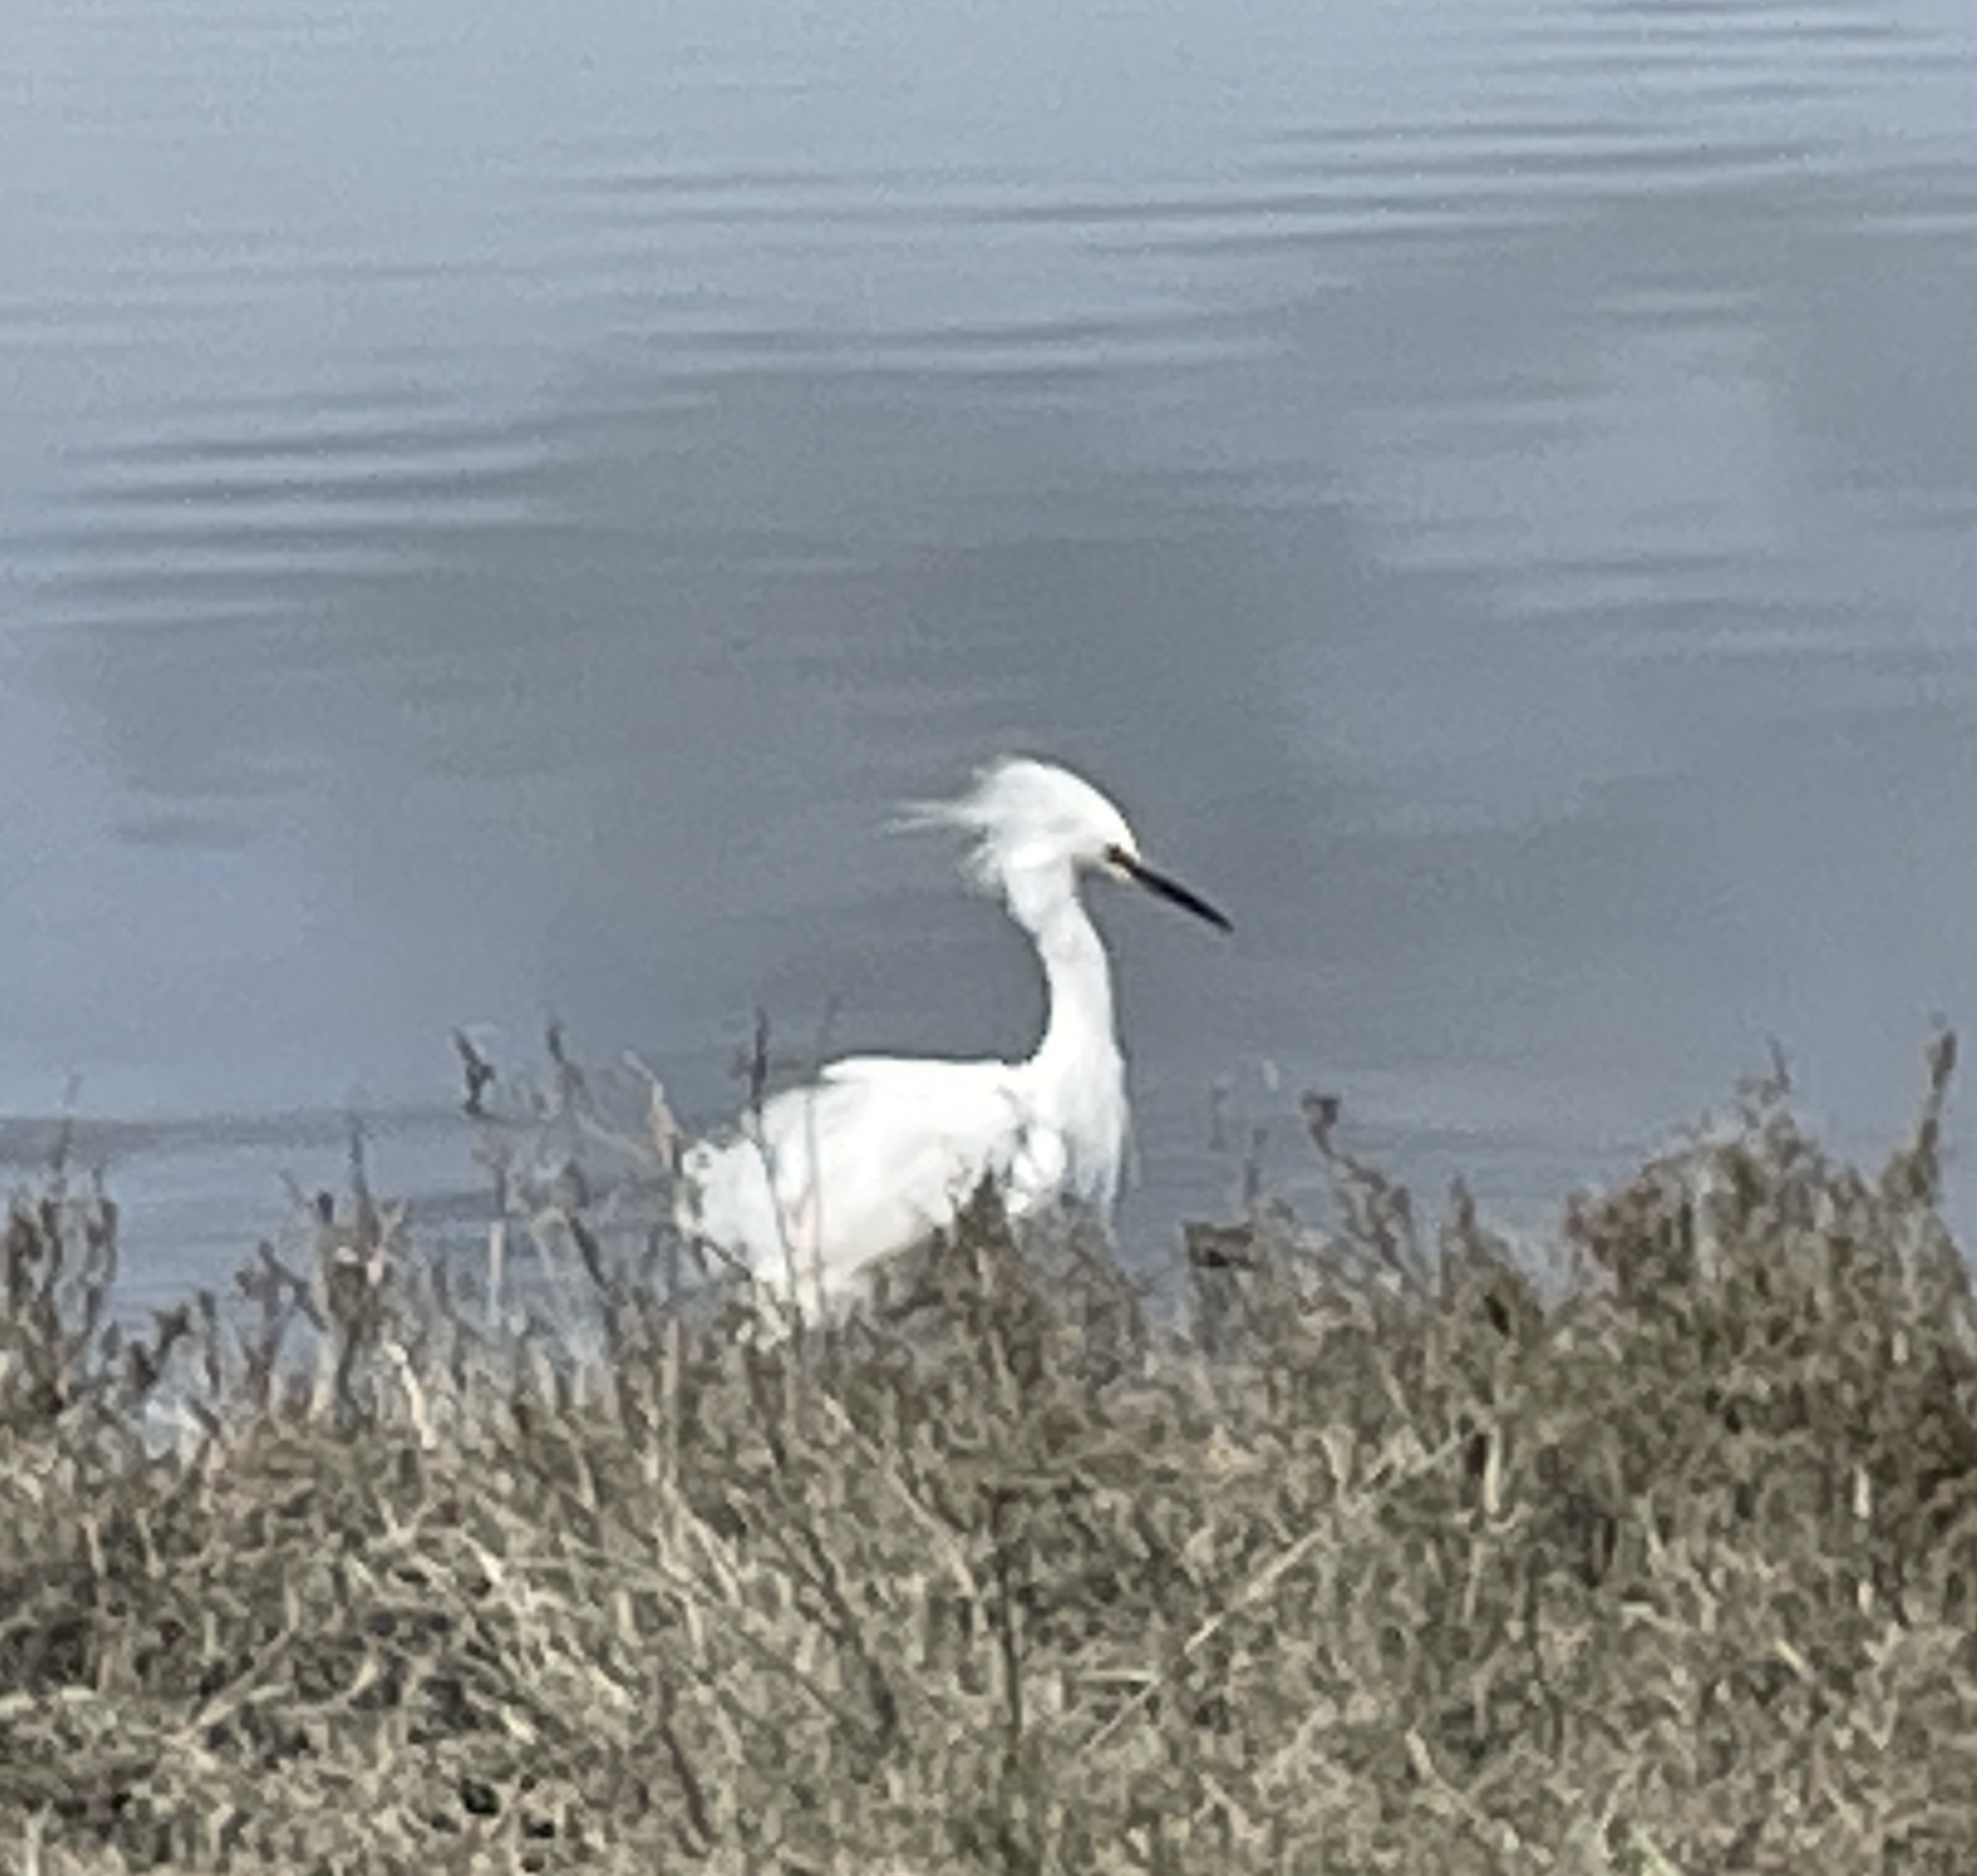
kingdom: Animalia
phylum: Chordata
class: Aves
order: Pelecaniformes
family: Ardeidae
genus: Egretta
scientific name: Egretta thula
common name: Snowy egret
